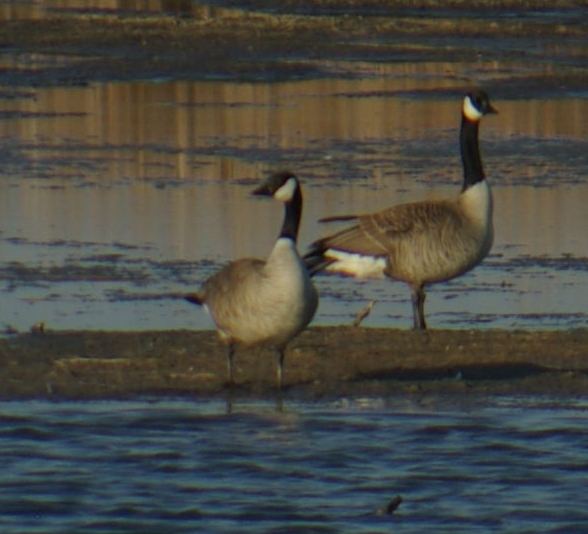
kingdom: Animalia
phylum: Chordata
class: Aves
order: Anseriformes
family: Anatidae
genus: Branta
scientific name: Branta canadensis
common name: Canada goose
